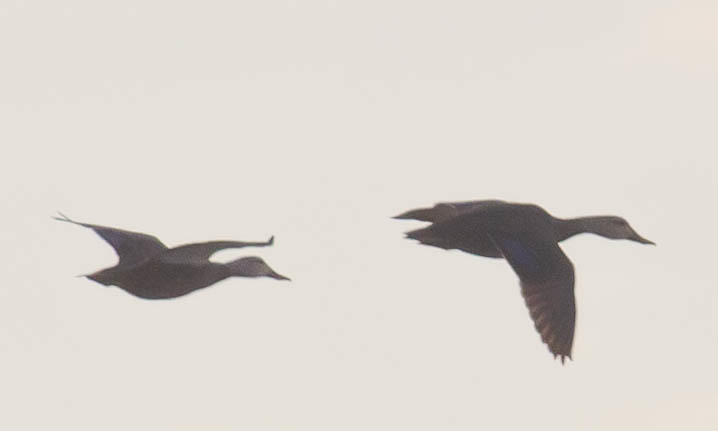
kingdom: Animalia
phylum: Chordata
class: Aves
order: Anseriformes
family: Anatidae
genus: Anas
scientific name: Anas fulvigula
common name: Mottled duck
